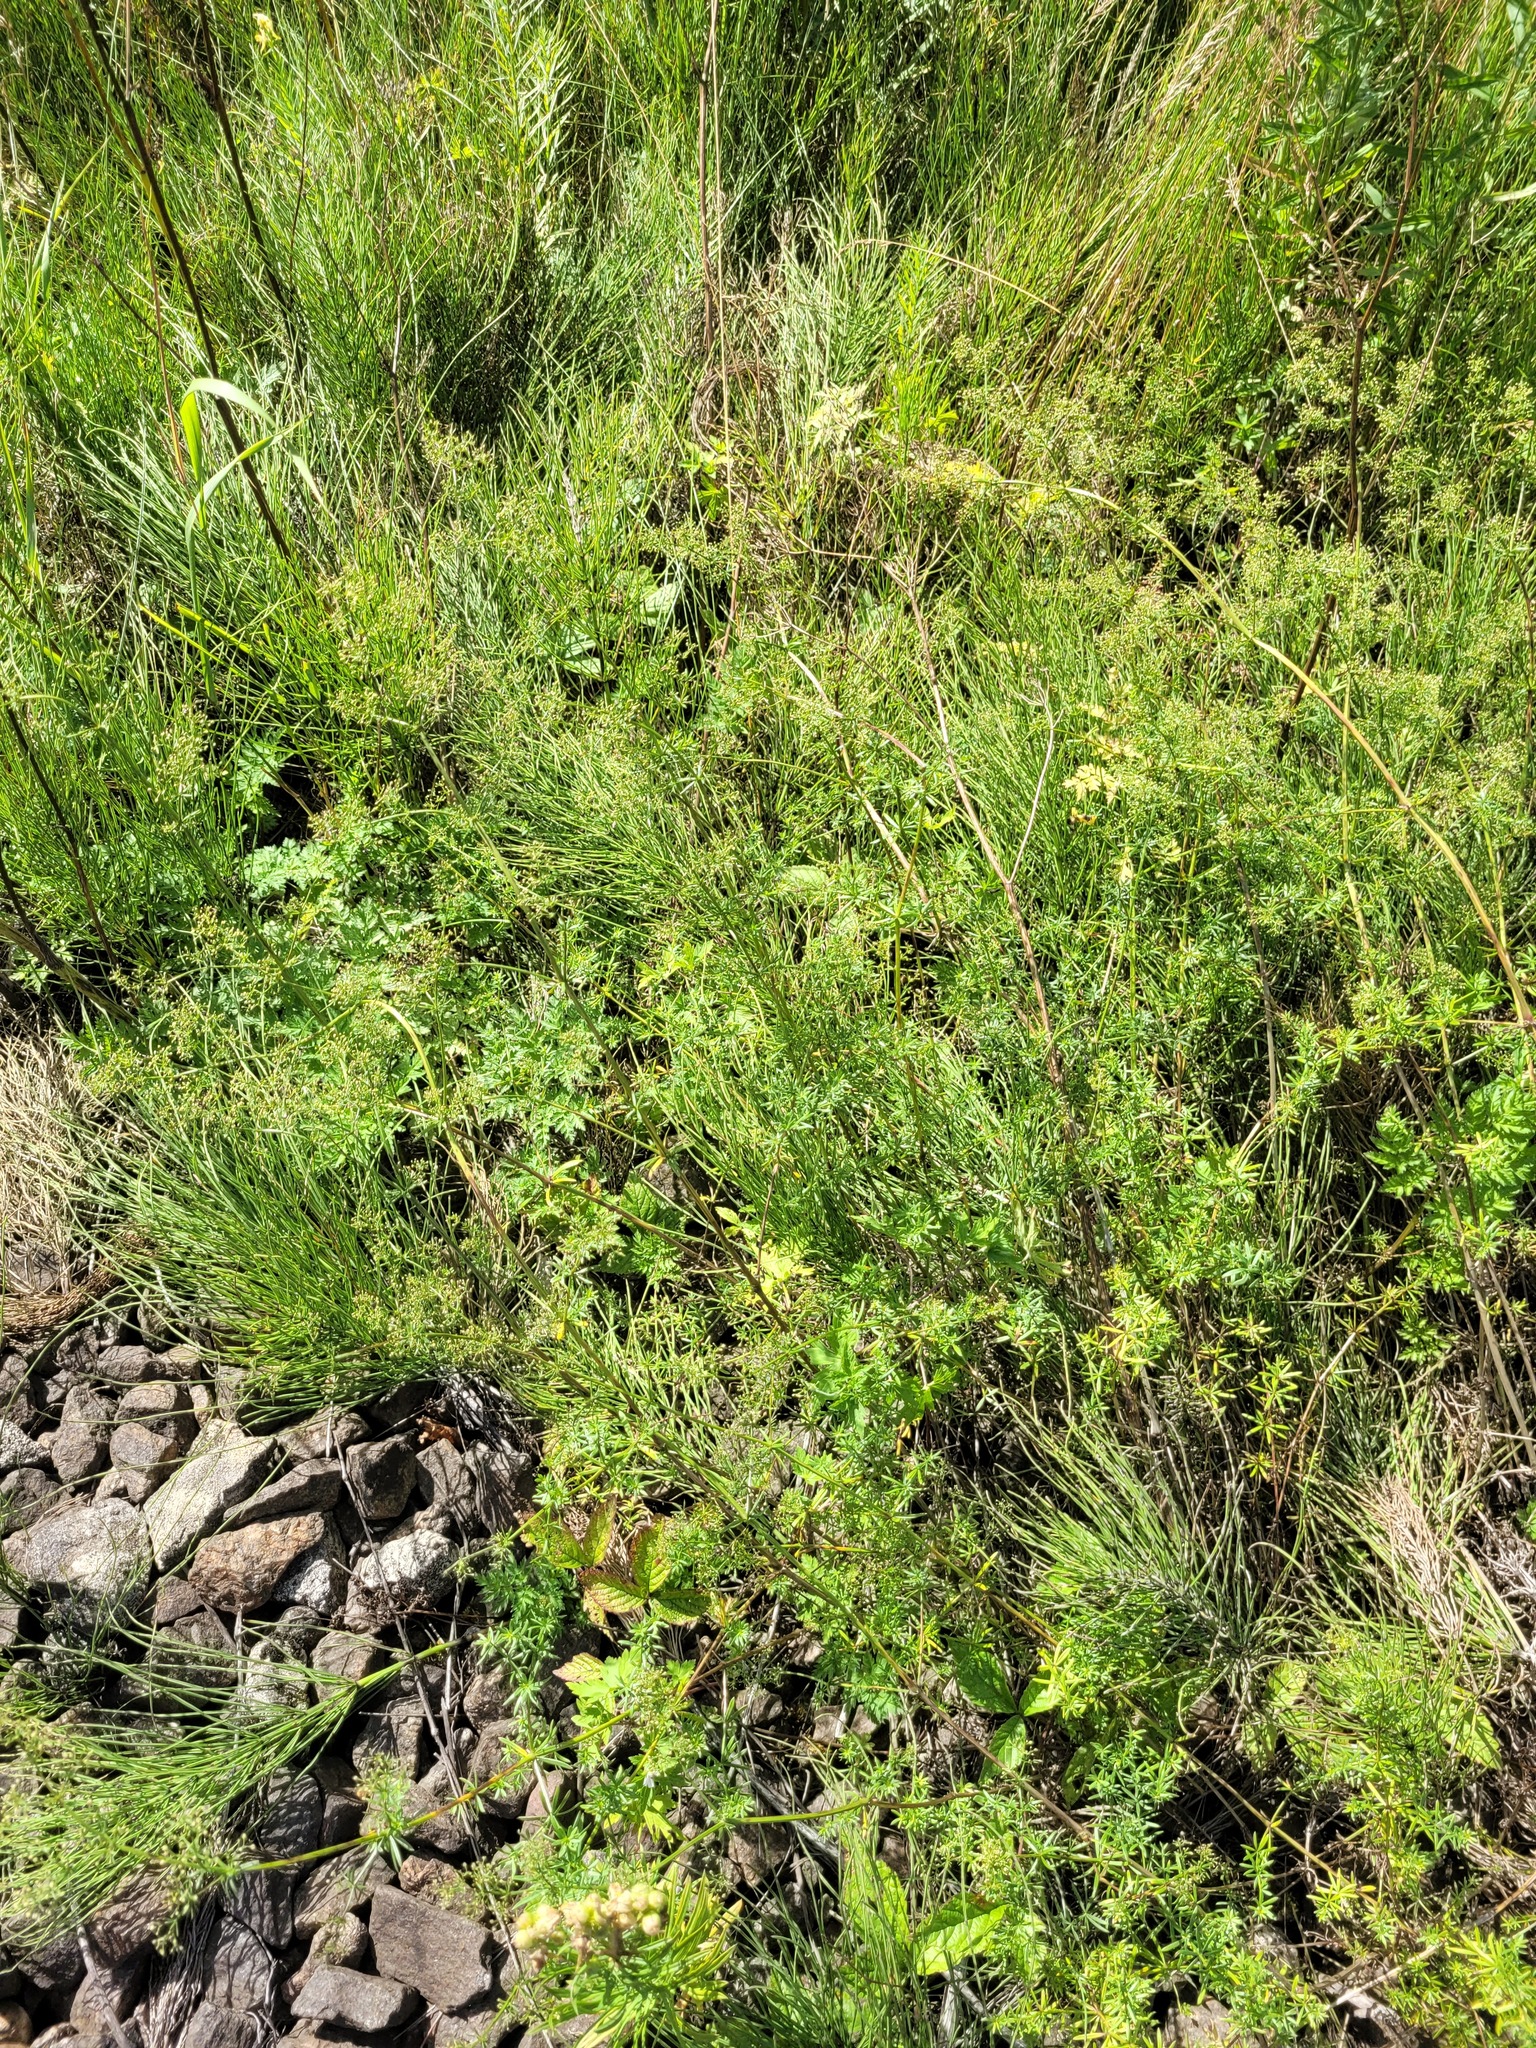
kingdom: Plantae
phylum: Tracheophyta
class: Magnoliopsida
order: Gentianales
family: Rubiaceae
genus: Galium
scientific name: Galium mollugo
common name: Hedge bedstraw
